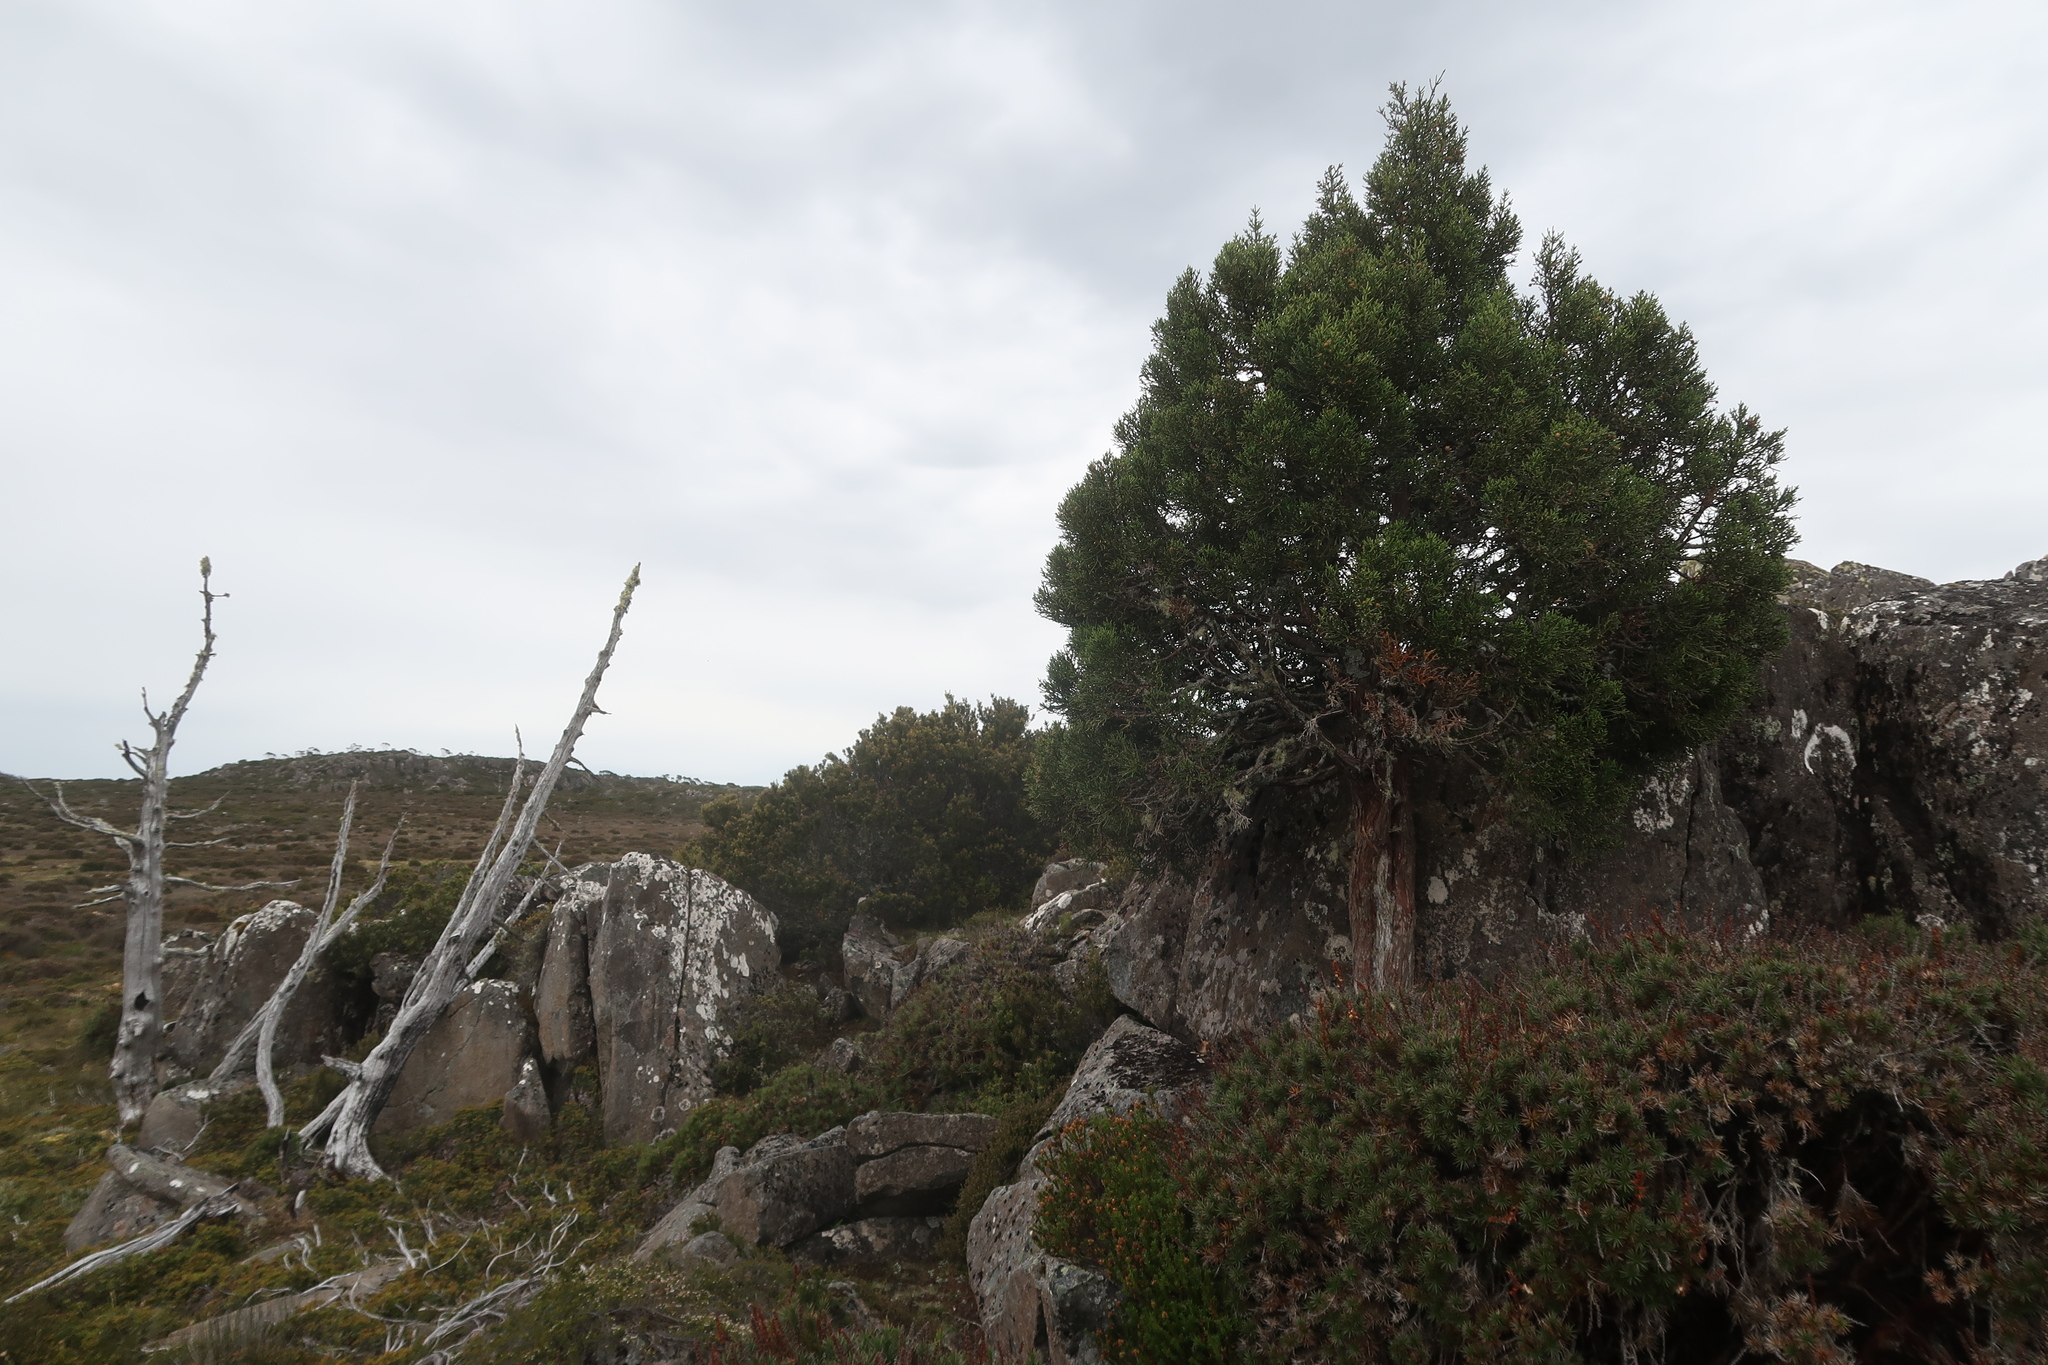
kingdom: Plantae
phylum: Tracheophyta
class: Pinopsida
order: Pinales
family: Cupressaceae
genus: Athrotaxis
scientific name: Athrotaxis cupressoides
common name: Tasmanian pencil pine
